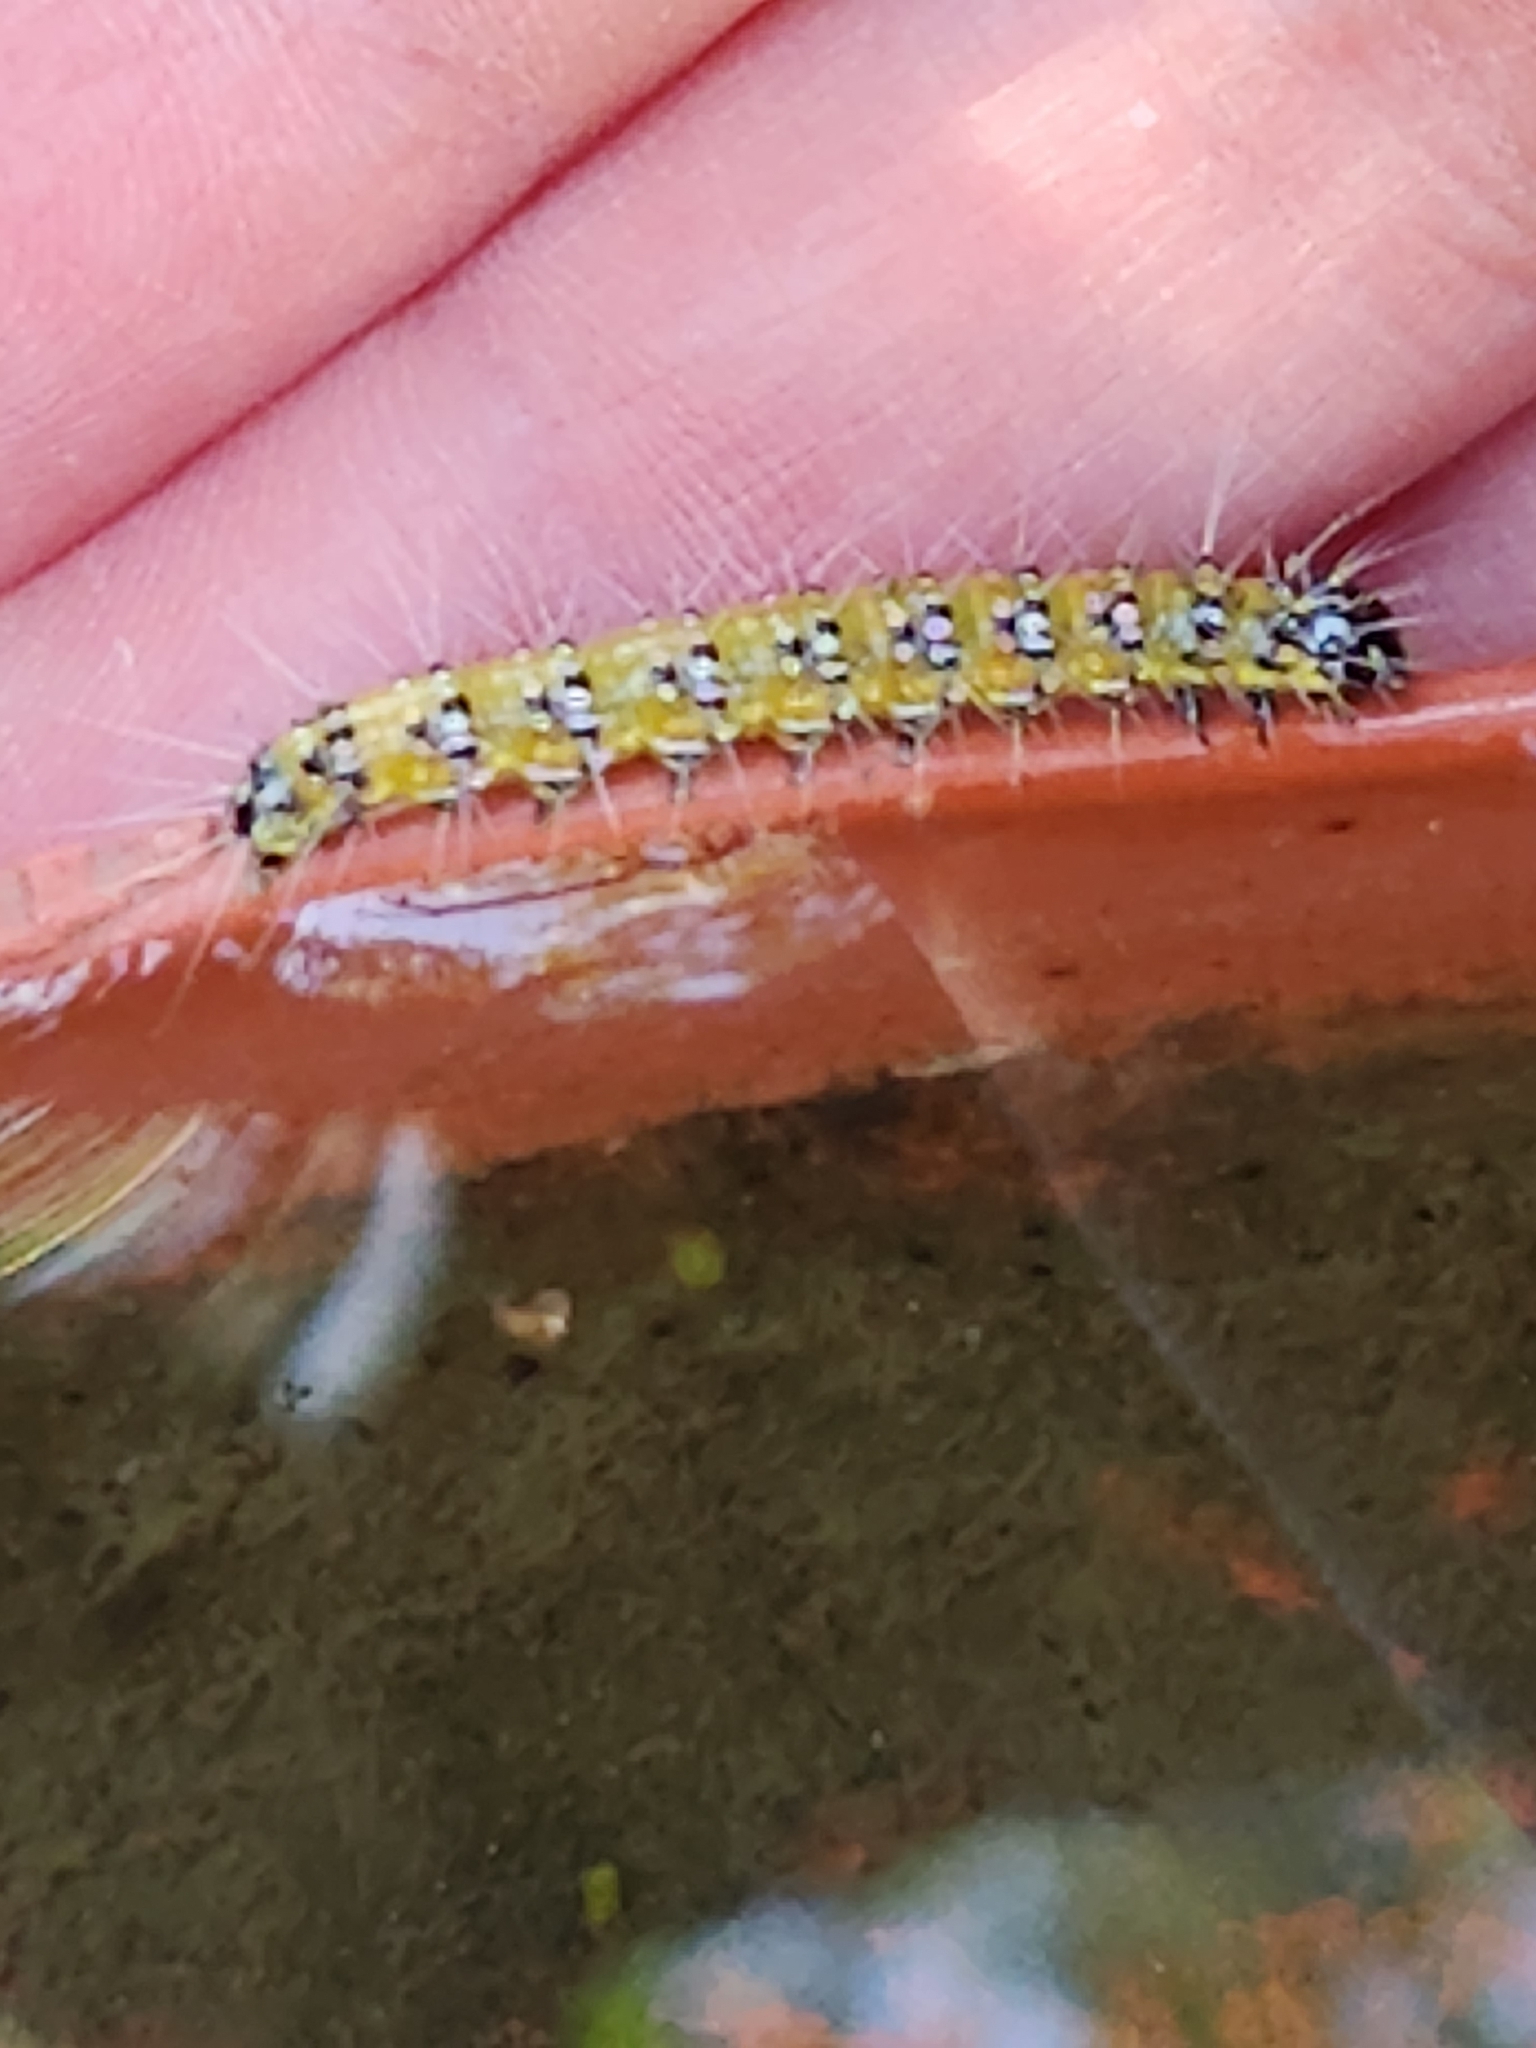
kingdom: Animalia
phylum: Arthropoda
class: Insecta
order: Lepidoptera
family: Crambidae
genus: Uresiphita
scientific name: Uresiphita reversalis
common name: Genista broom moth
